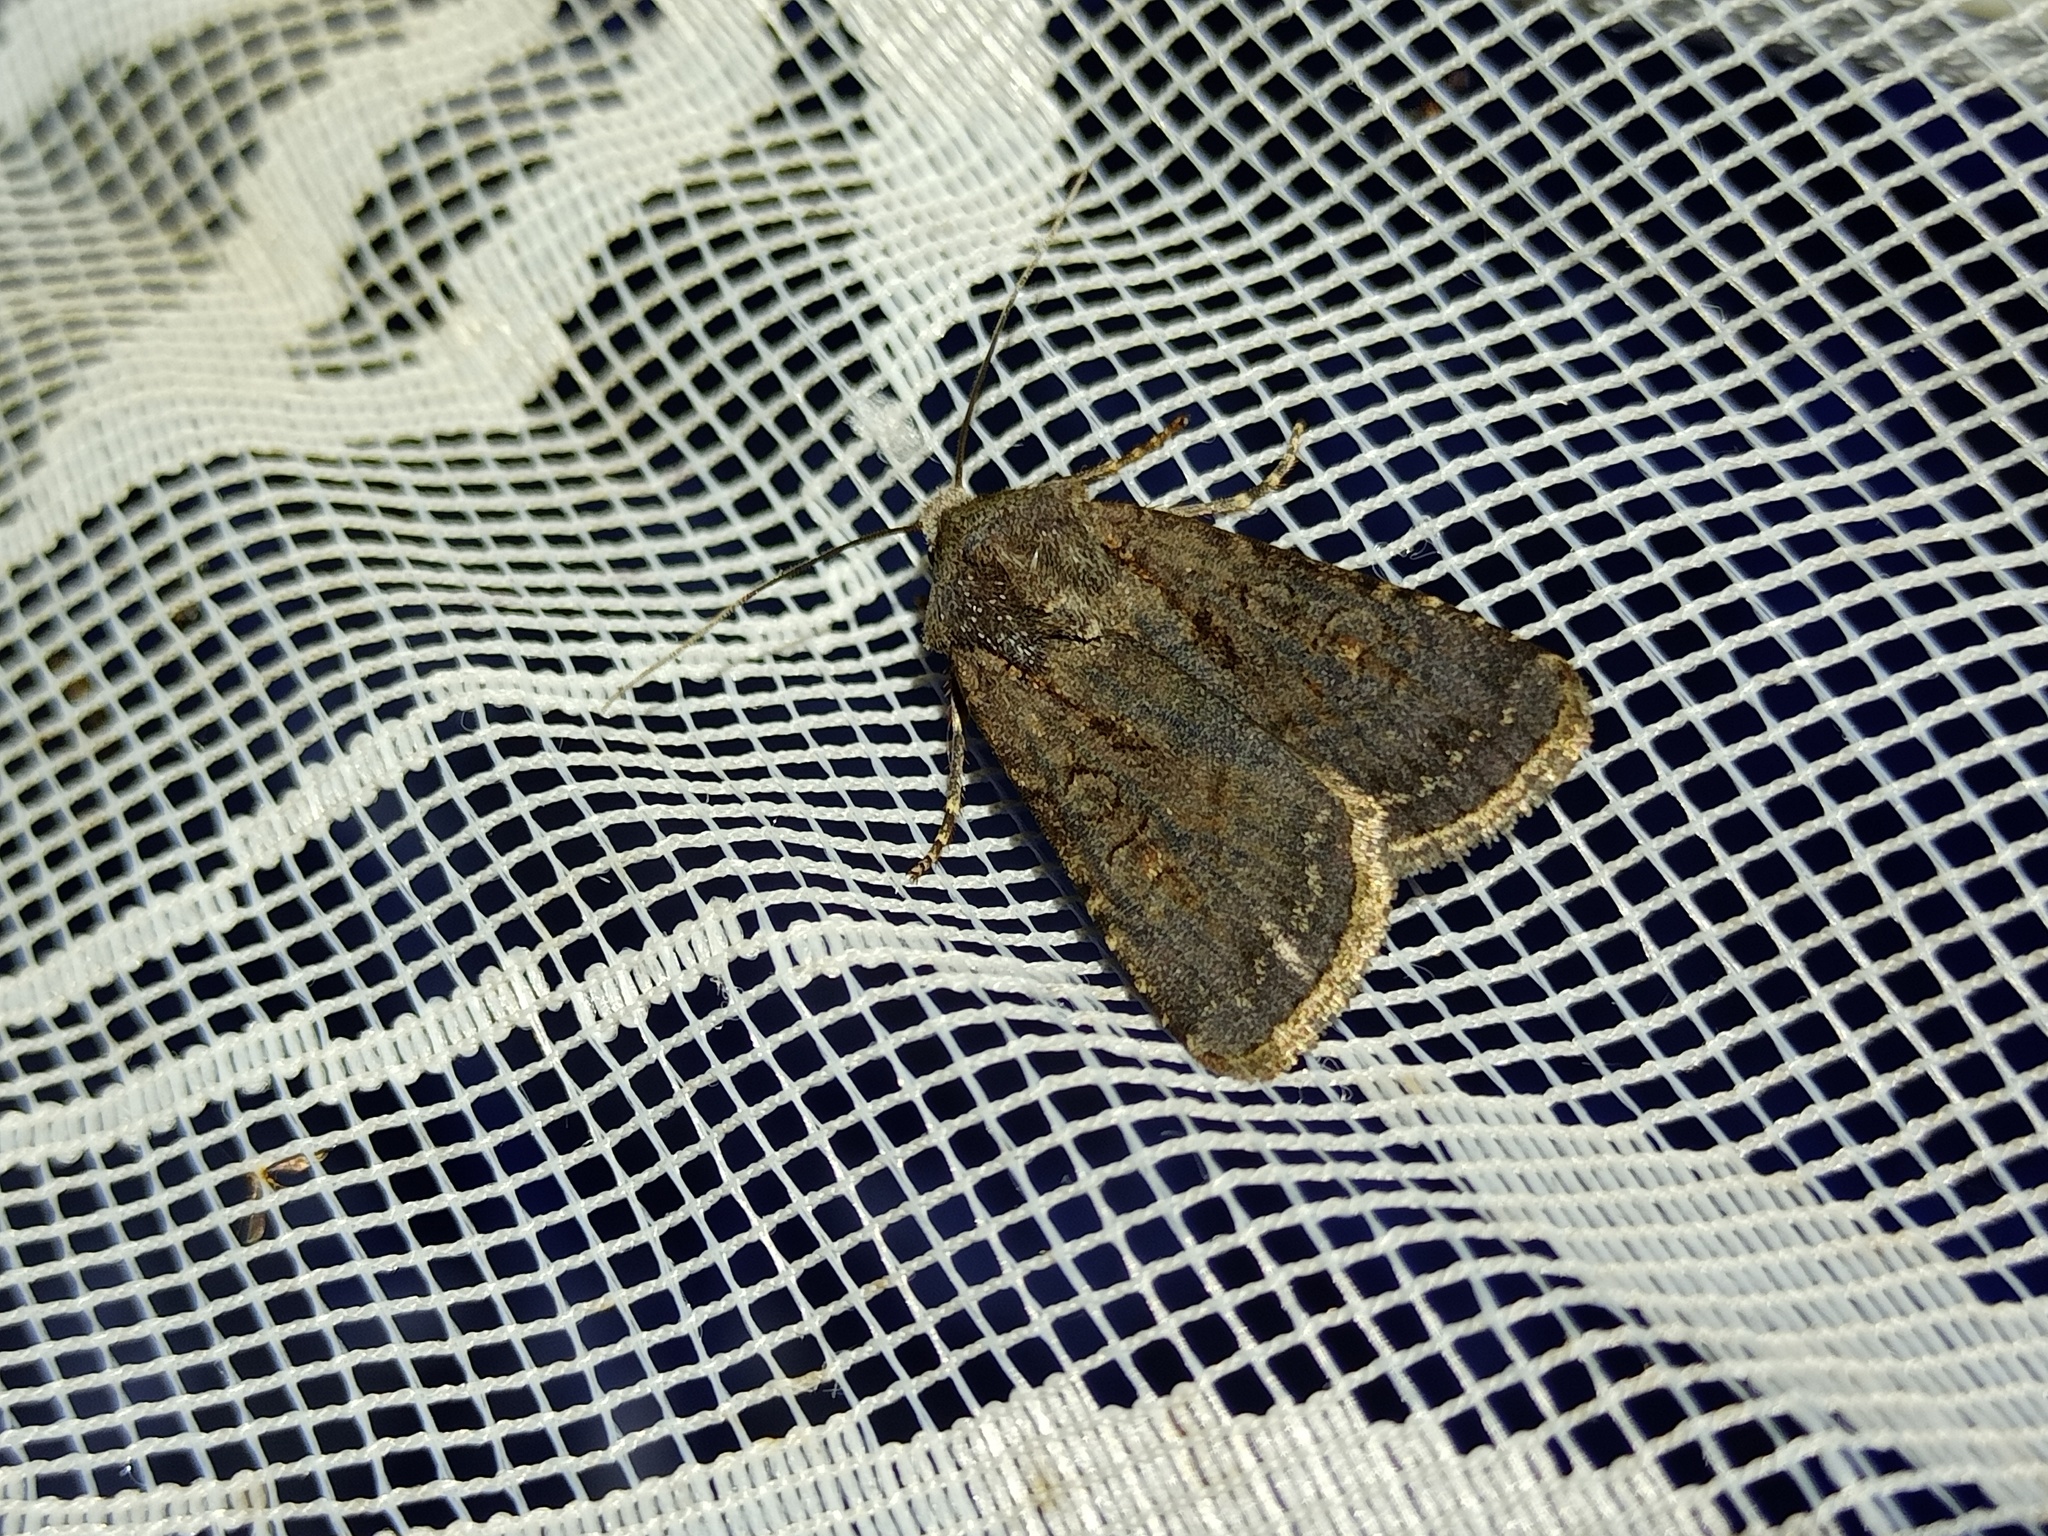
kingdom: Animalia
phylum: Arthropoda
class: Insecta
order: Lepidoptera
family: Noctuidae
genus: Euxoa
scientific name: Euxoa nigricans
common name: Garden dart
